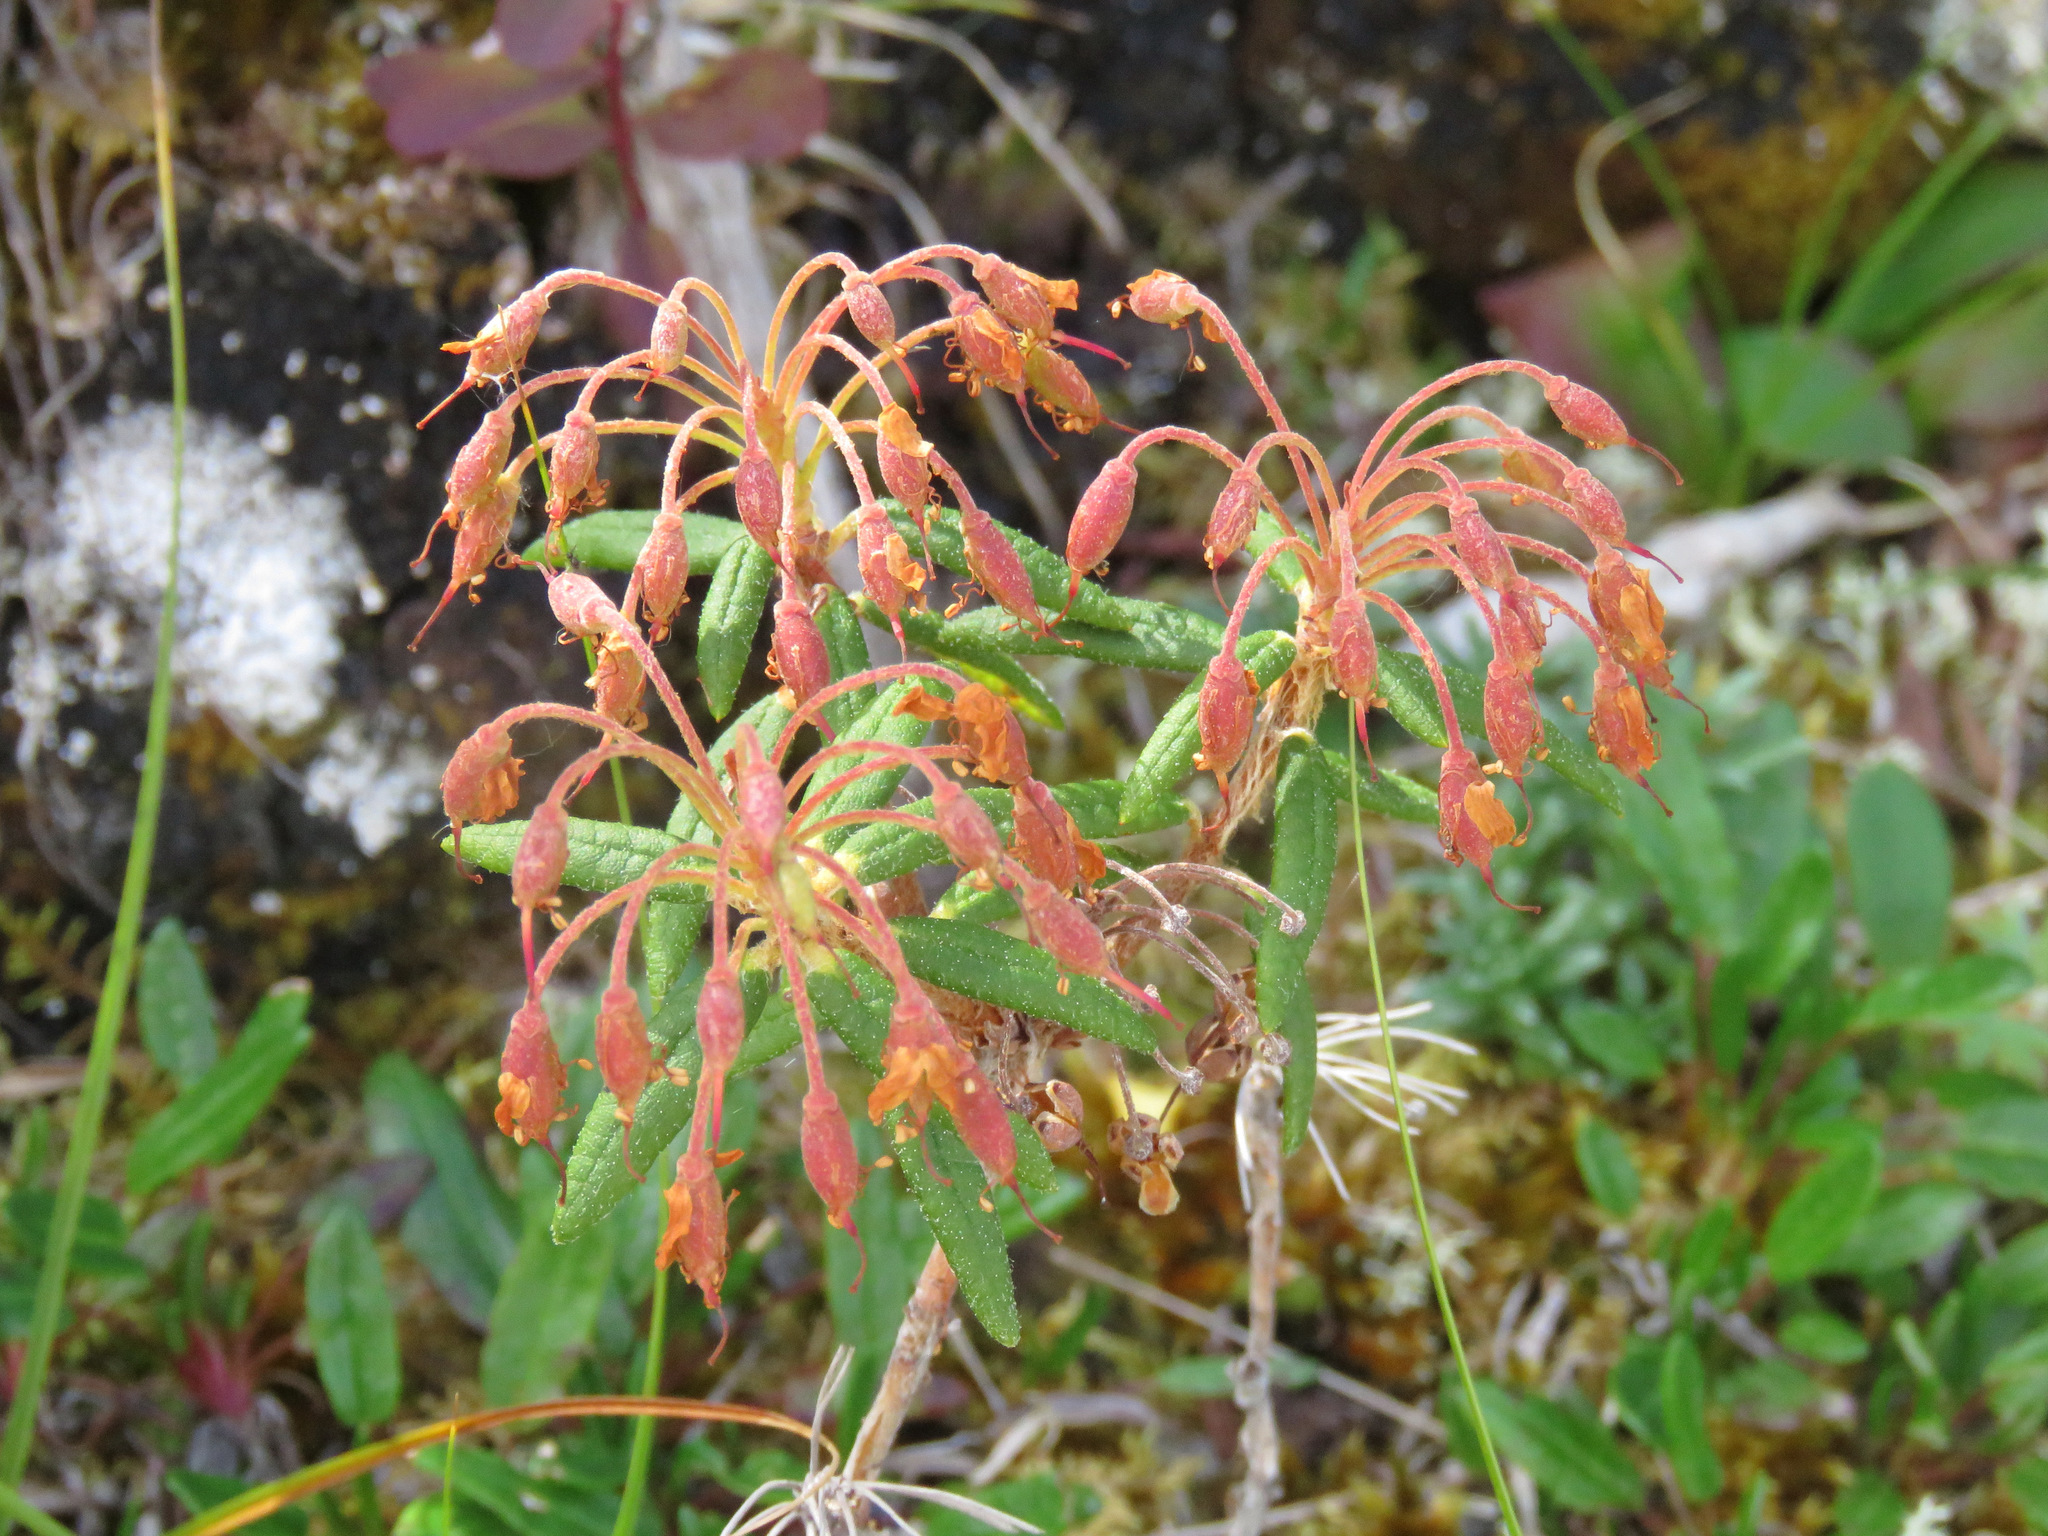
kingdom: Plantae
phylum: Tracheophyta
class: Magnoliopsida
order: Ericales
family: Ericaceae
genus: Rhododendron
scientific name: Rhododendron groenlandicum
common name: Bog labrador tea
